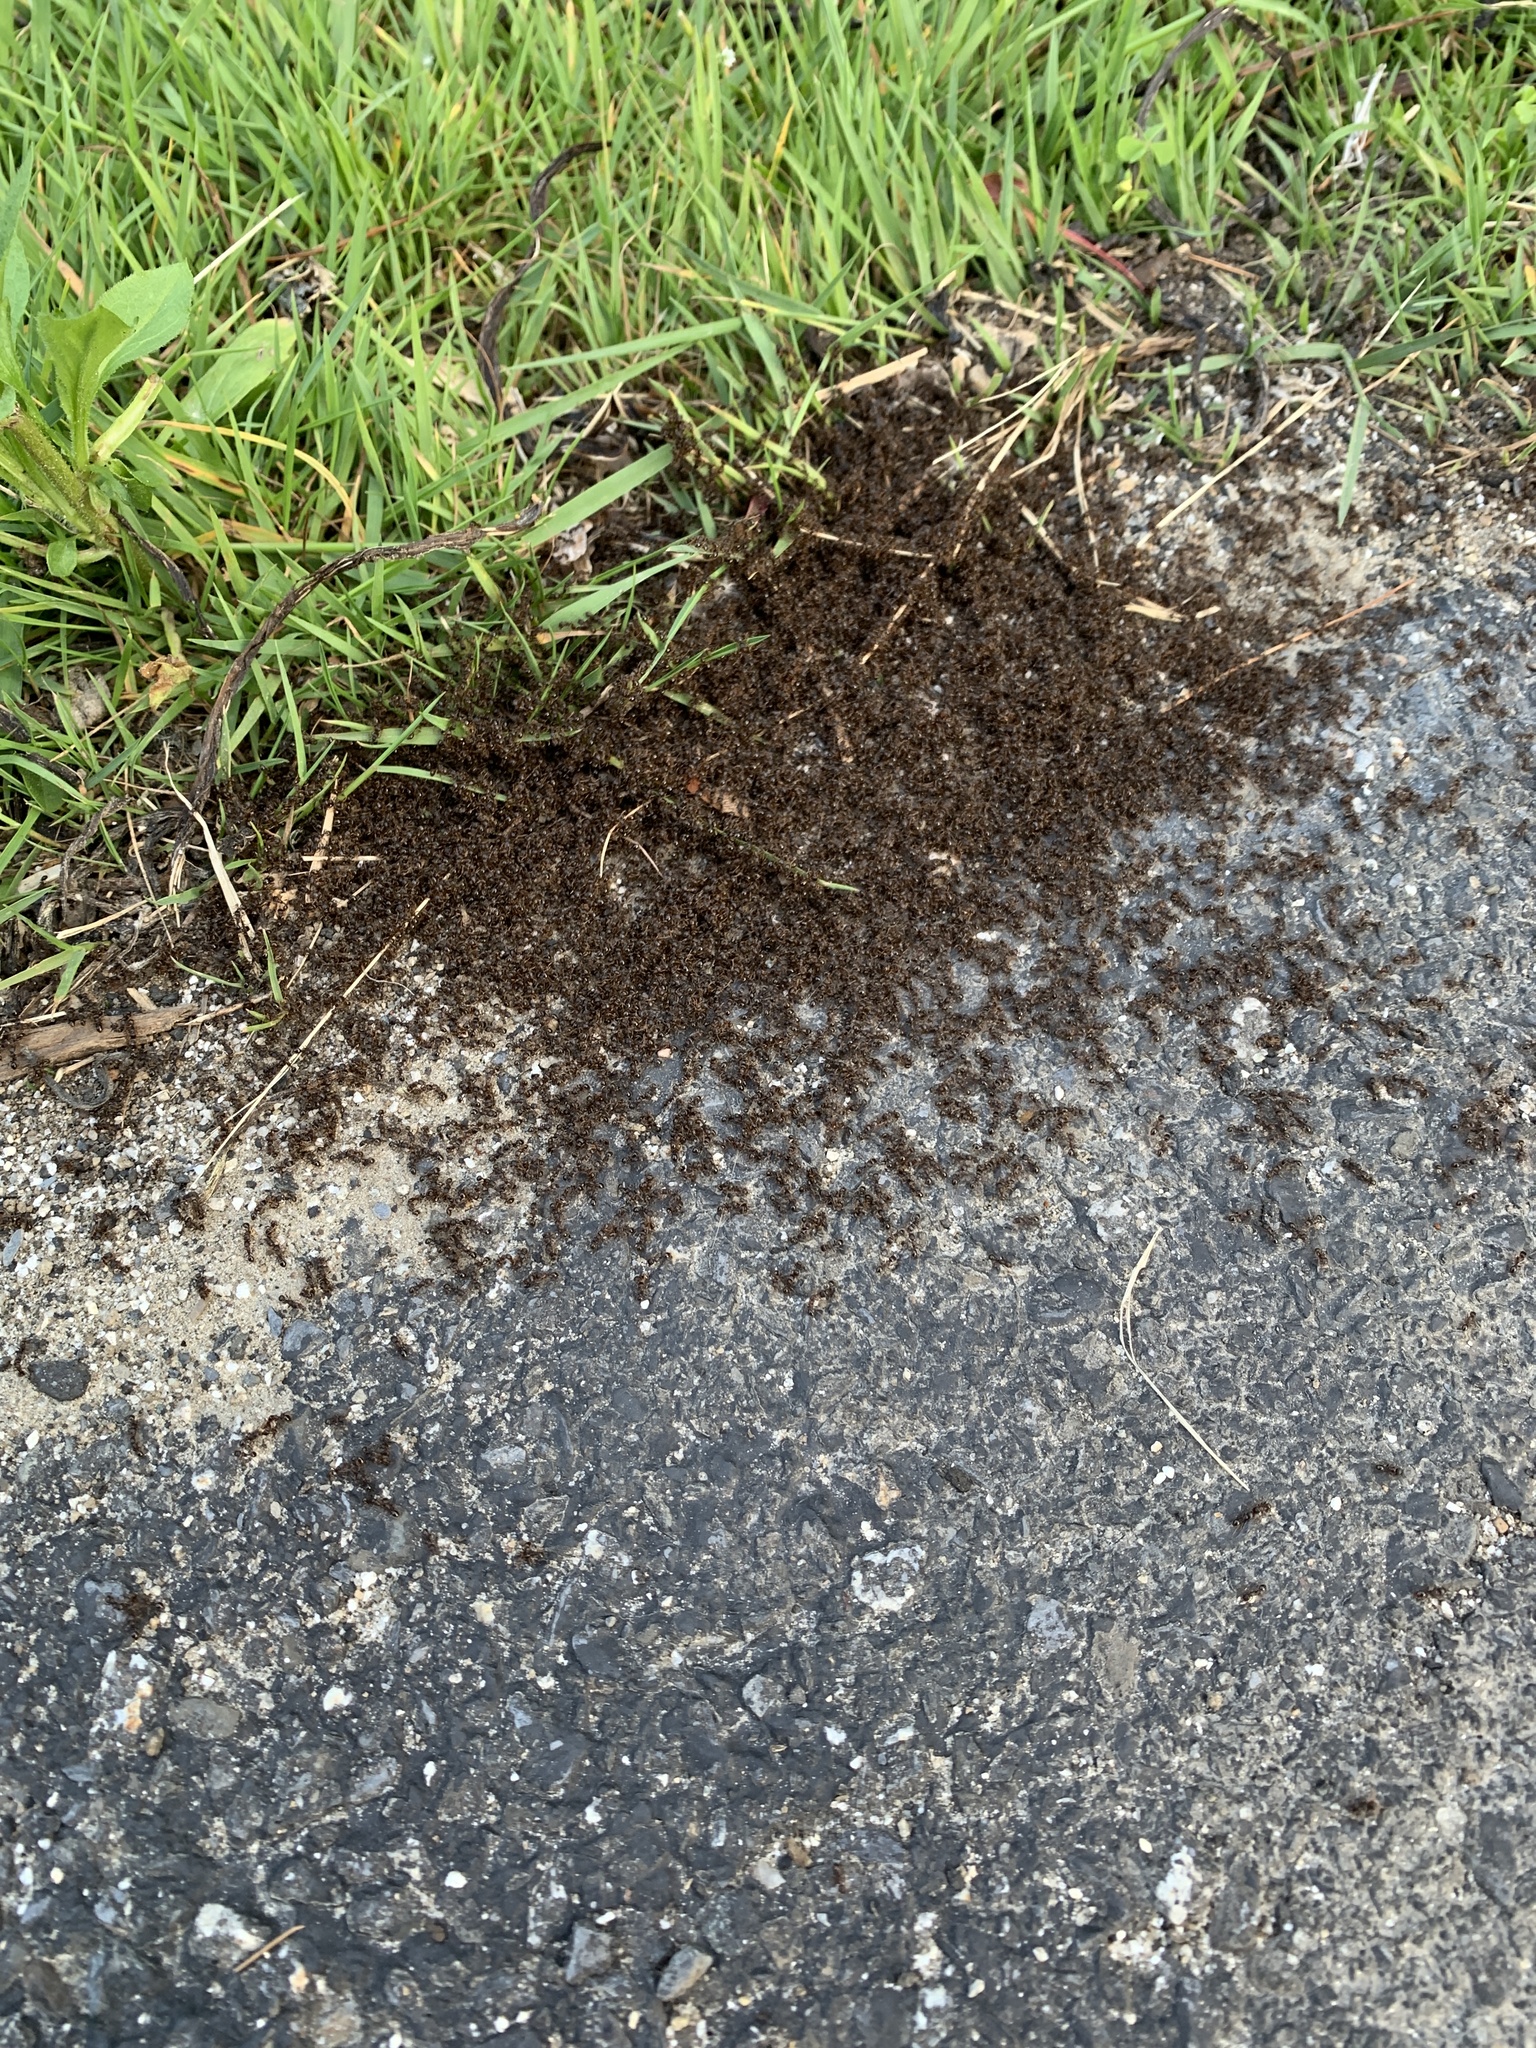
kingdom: Animalia
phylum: Arthropoda
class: Insecta
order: Hymenoptera
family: Formicidae
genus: Tetramorium
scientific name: Tetramorium immigrans
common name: Pavement ant
